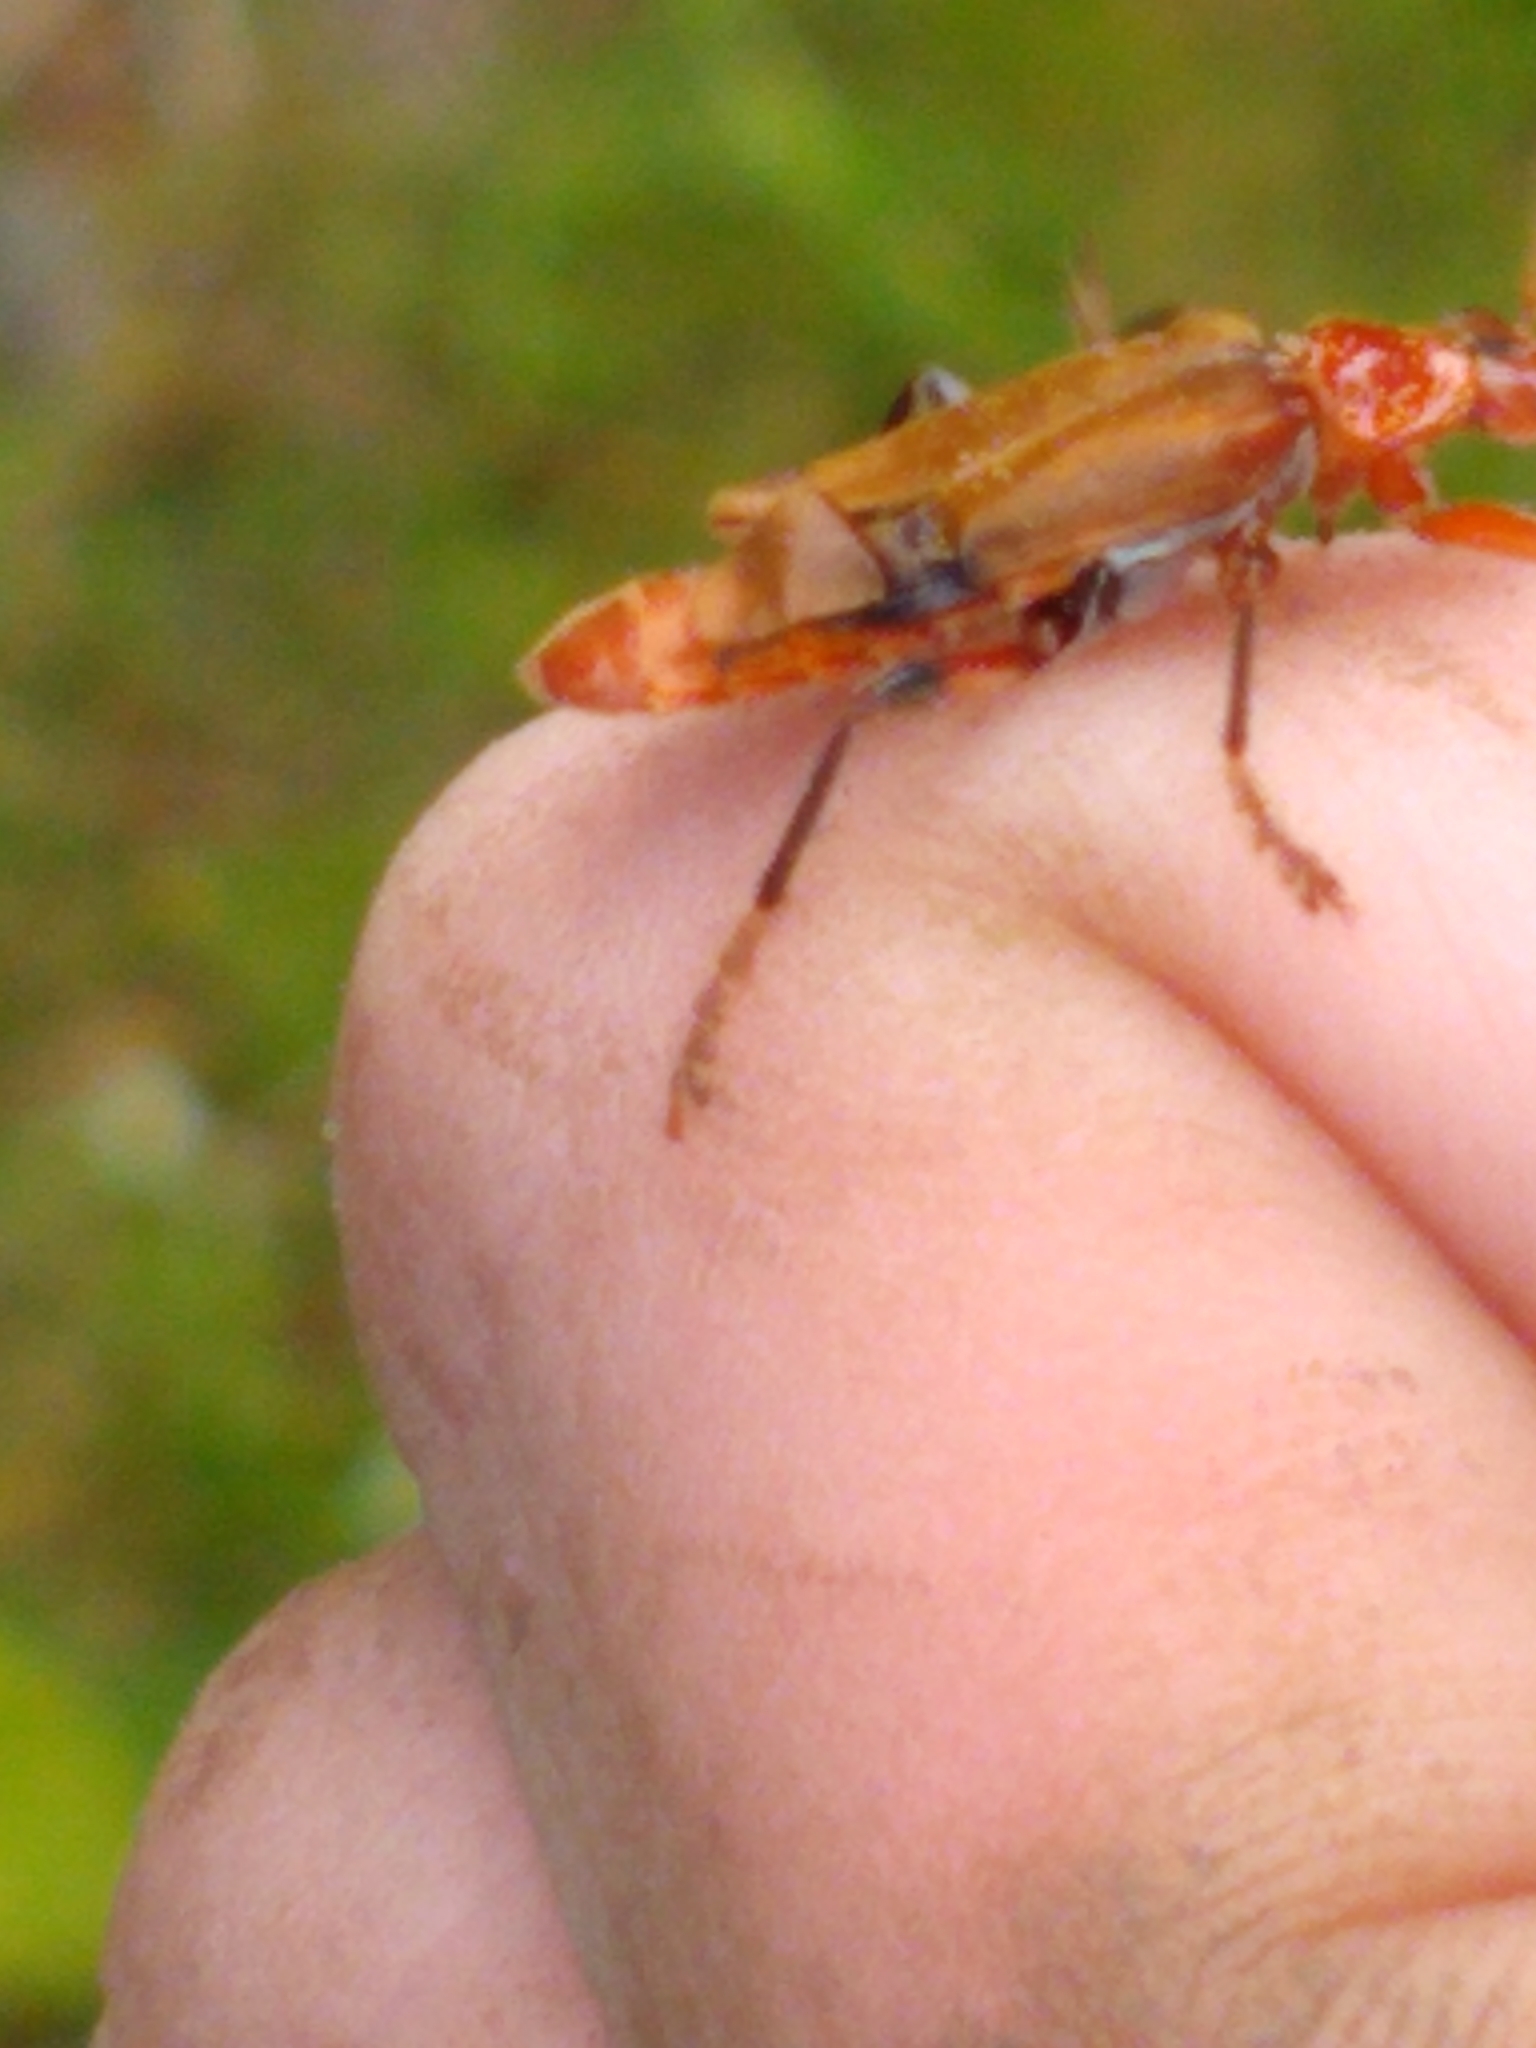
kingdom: Animalia
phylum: Arthropoda
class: Insecta
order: Coleoptera
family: Cantharidae
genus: Cantharis
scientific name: Cantharis livida
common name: Livid soldier beetle
